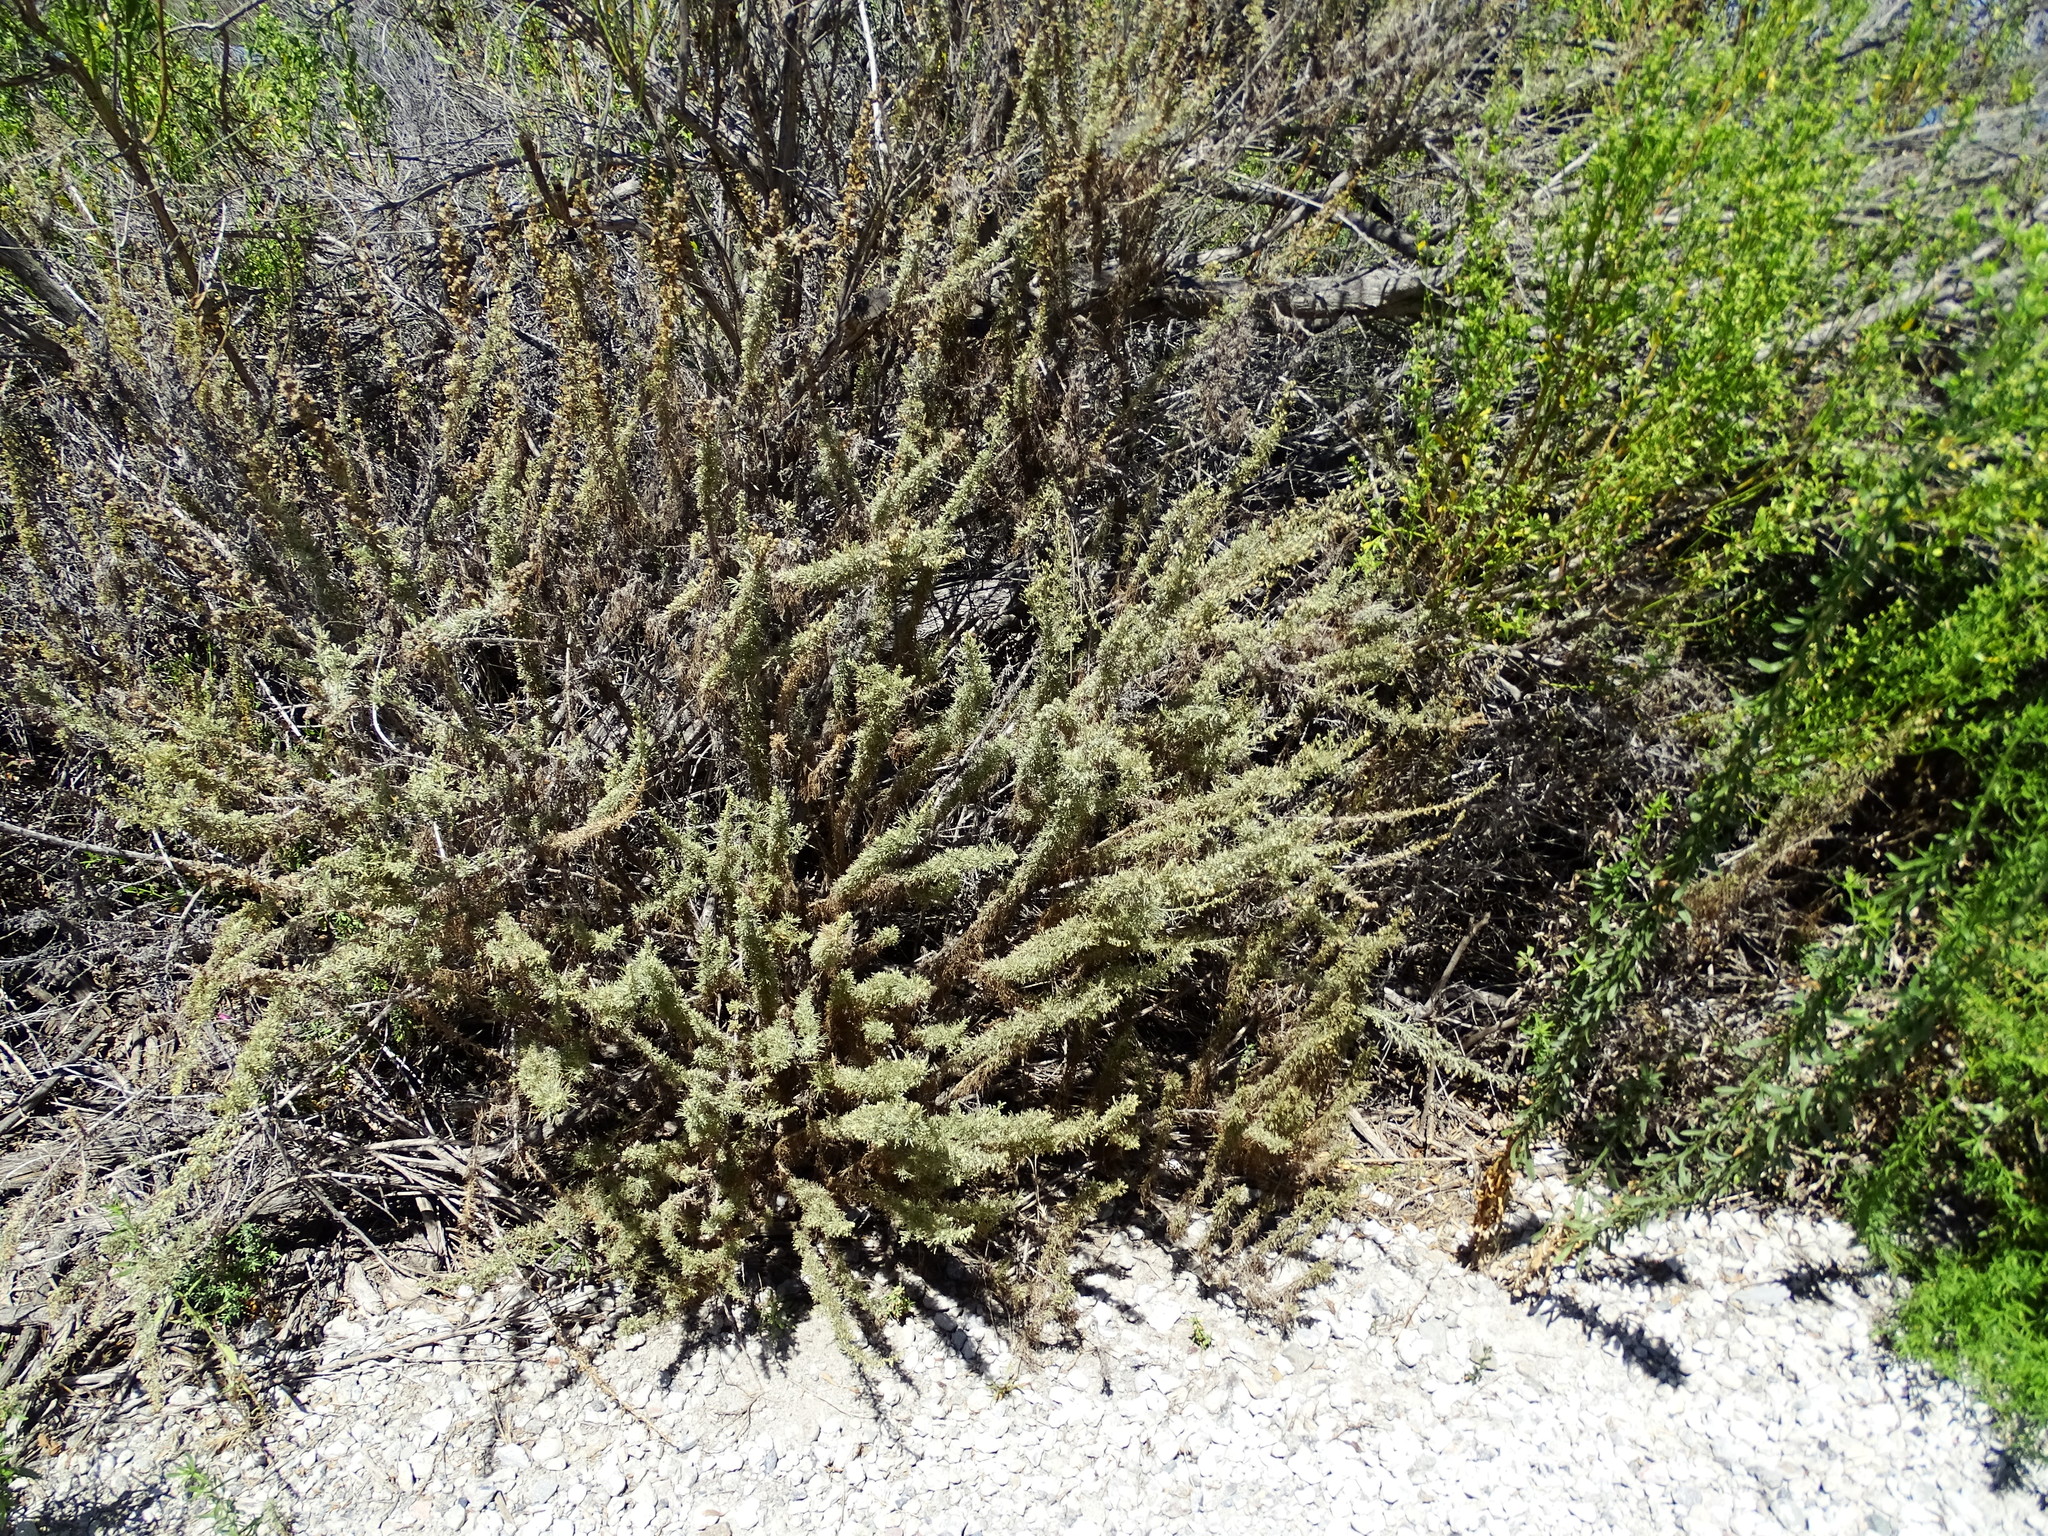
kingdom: Plantae
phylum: Tracheophyta
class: Magnoliopsida
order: Asterales
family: Asteraceae
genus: Artemisia
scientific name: Artemisia californica
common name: California sagebrush
